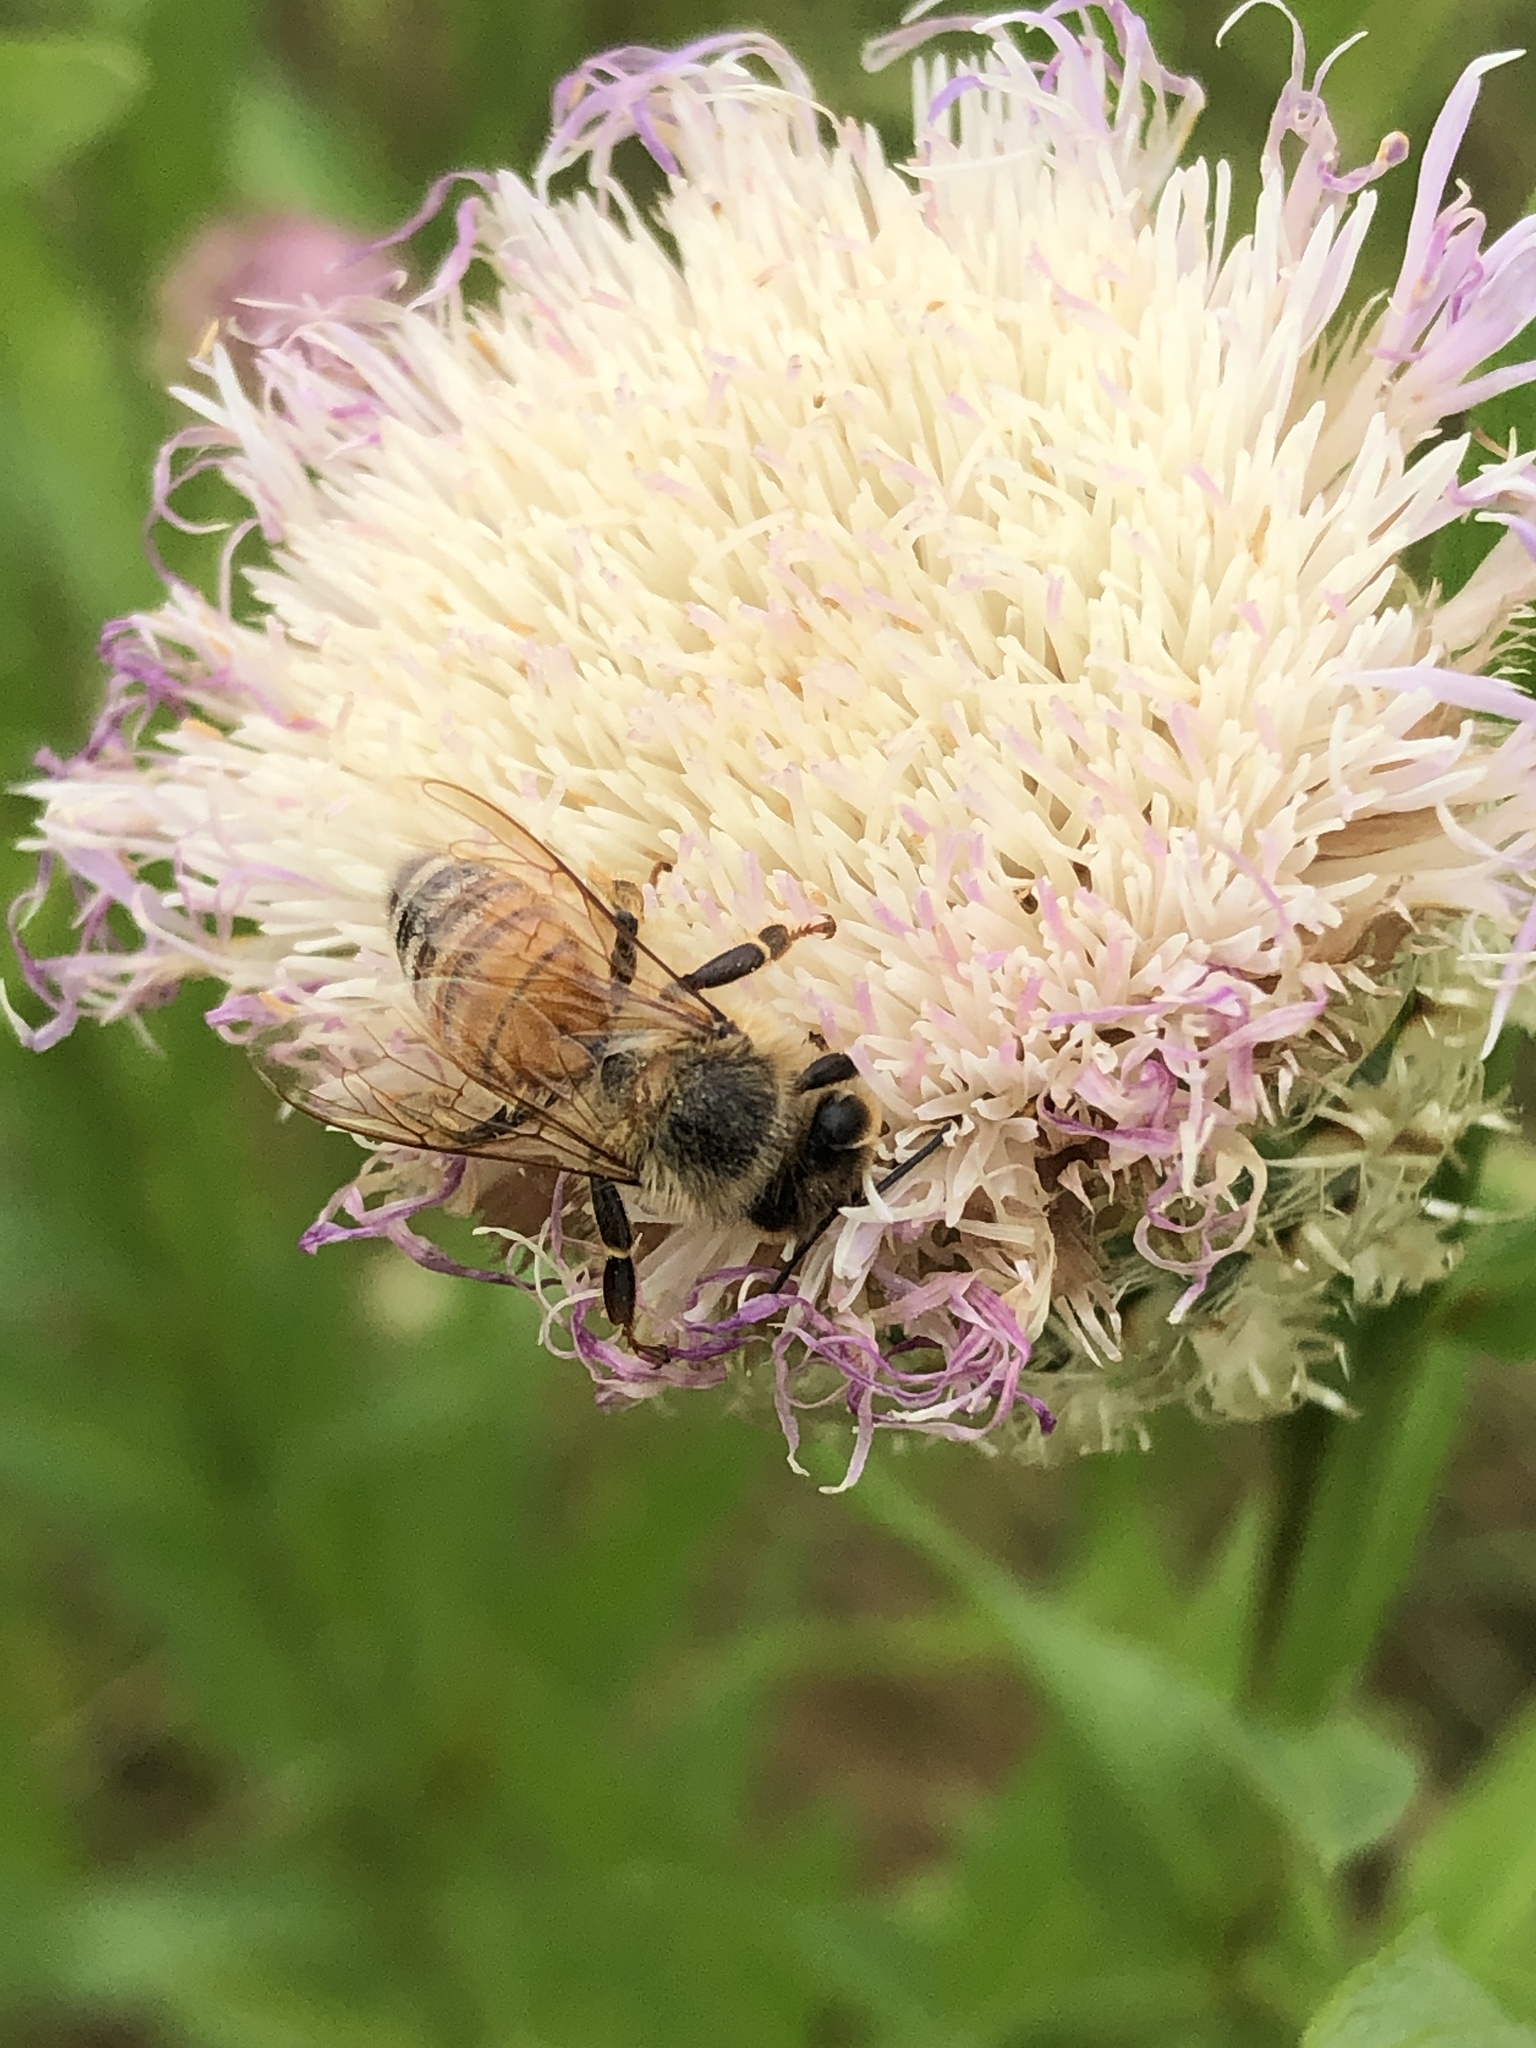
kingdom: Animalia
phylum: Arthropoda
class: Insecta
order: Hymenoptera
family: Apidae
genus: Apis
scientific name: Apis mellifera
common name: Honey bee
